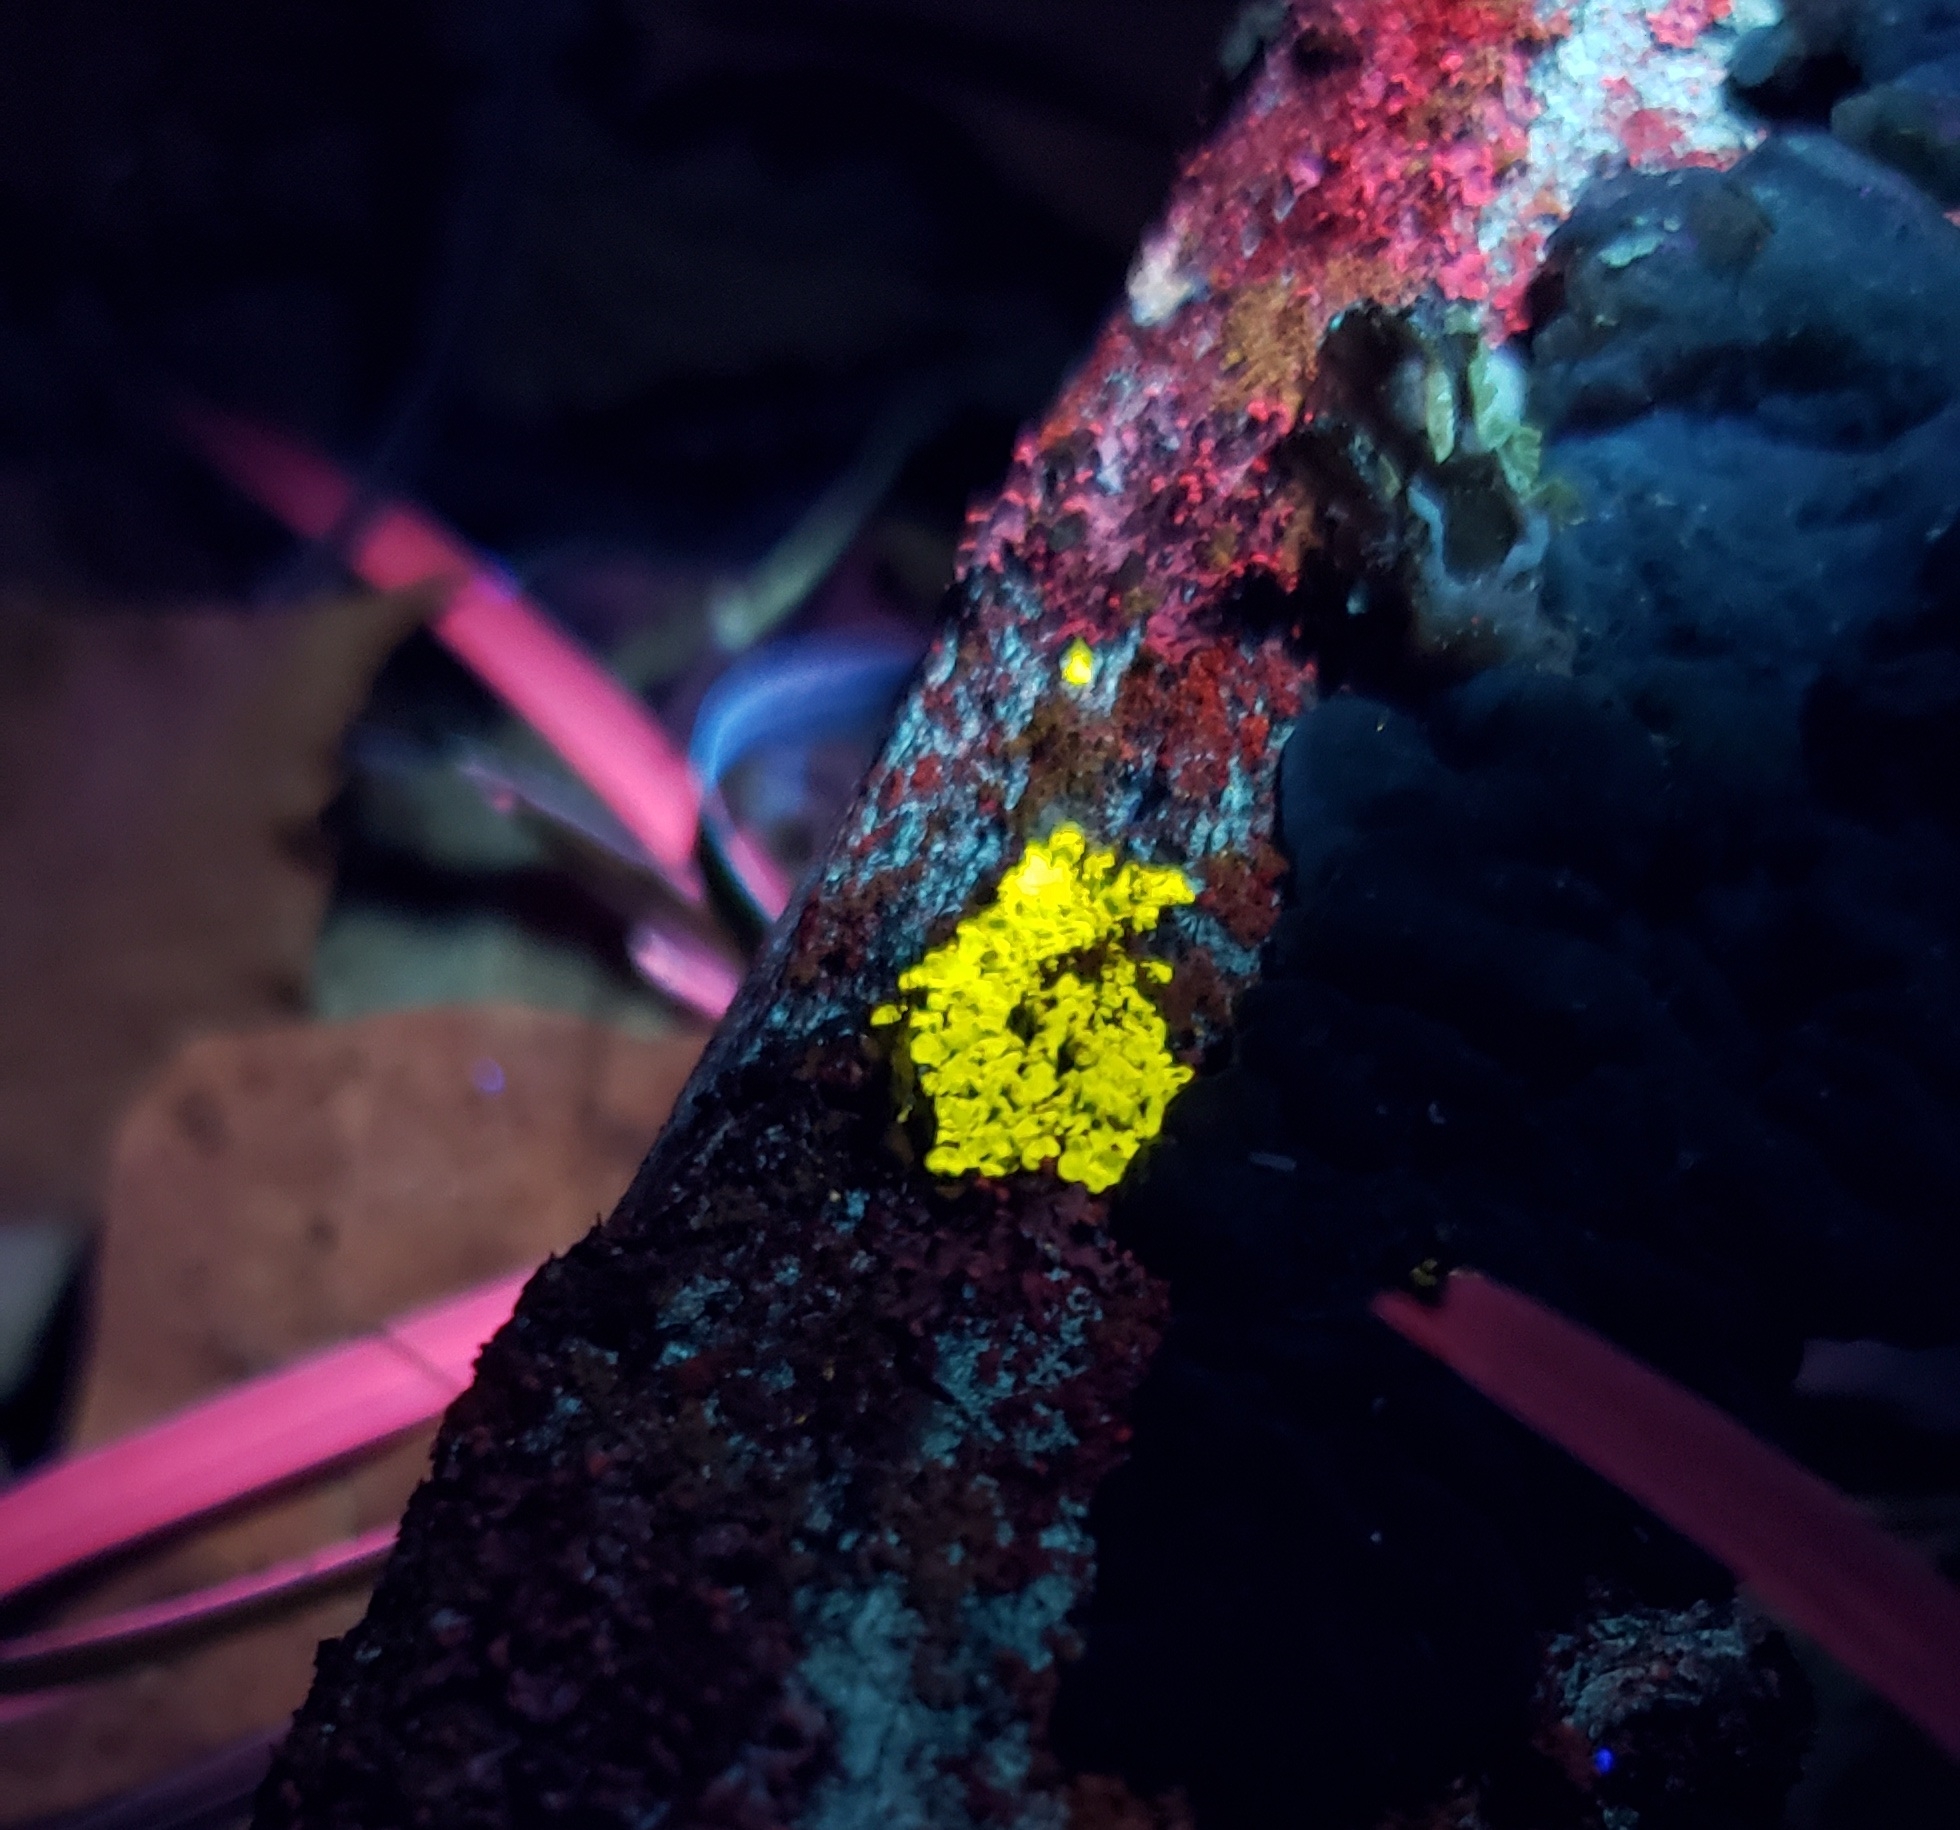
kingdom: Fungi
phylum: Ascomycota
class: Candelariomycetes
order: Candelariales
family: Candelariaceae
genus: Candelaria
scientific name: Candelaria concolor
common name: Candleflame lichen
